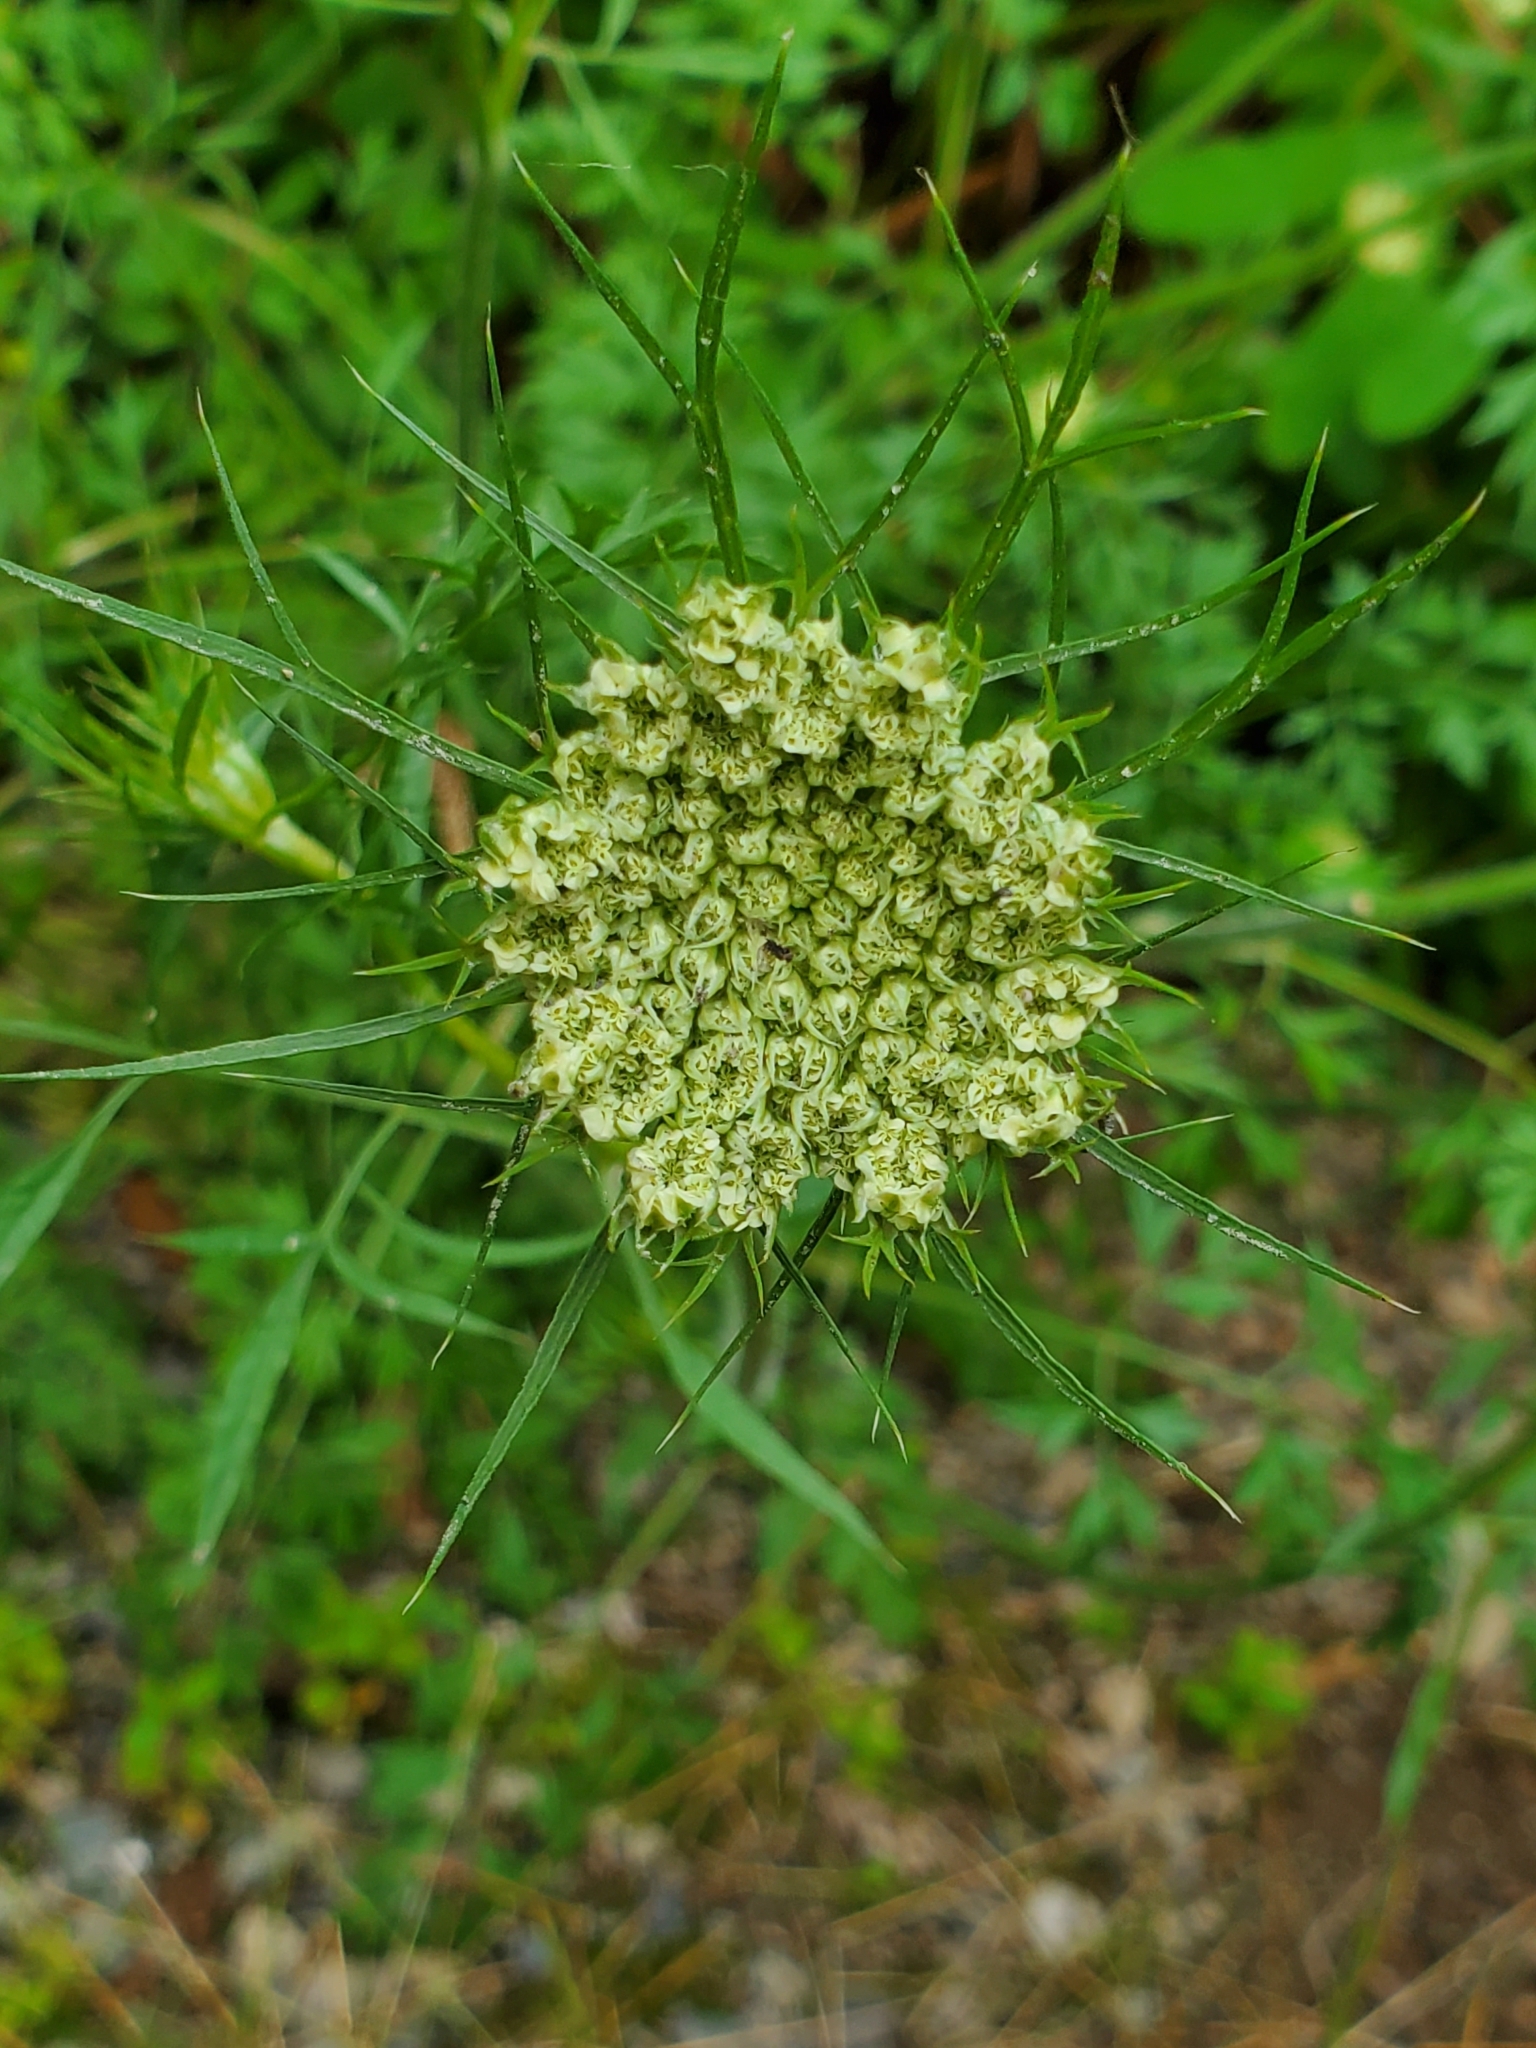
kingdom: Plantae
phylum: Tracheophyta
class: Magnoliopsida
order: Apiales
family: Apiaceae
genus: Daucus
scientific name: Daucus carota
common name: Wild carrot
